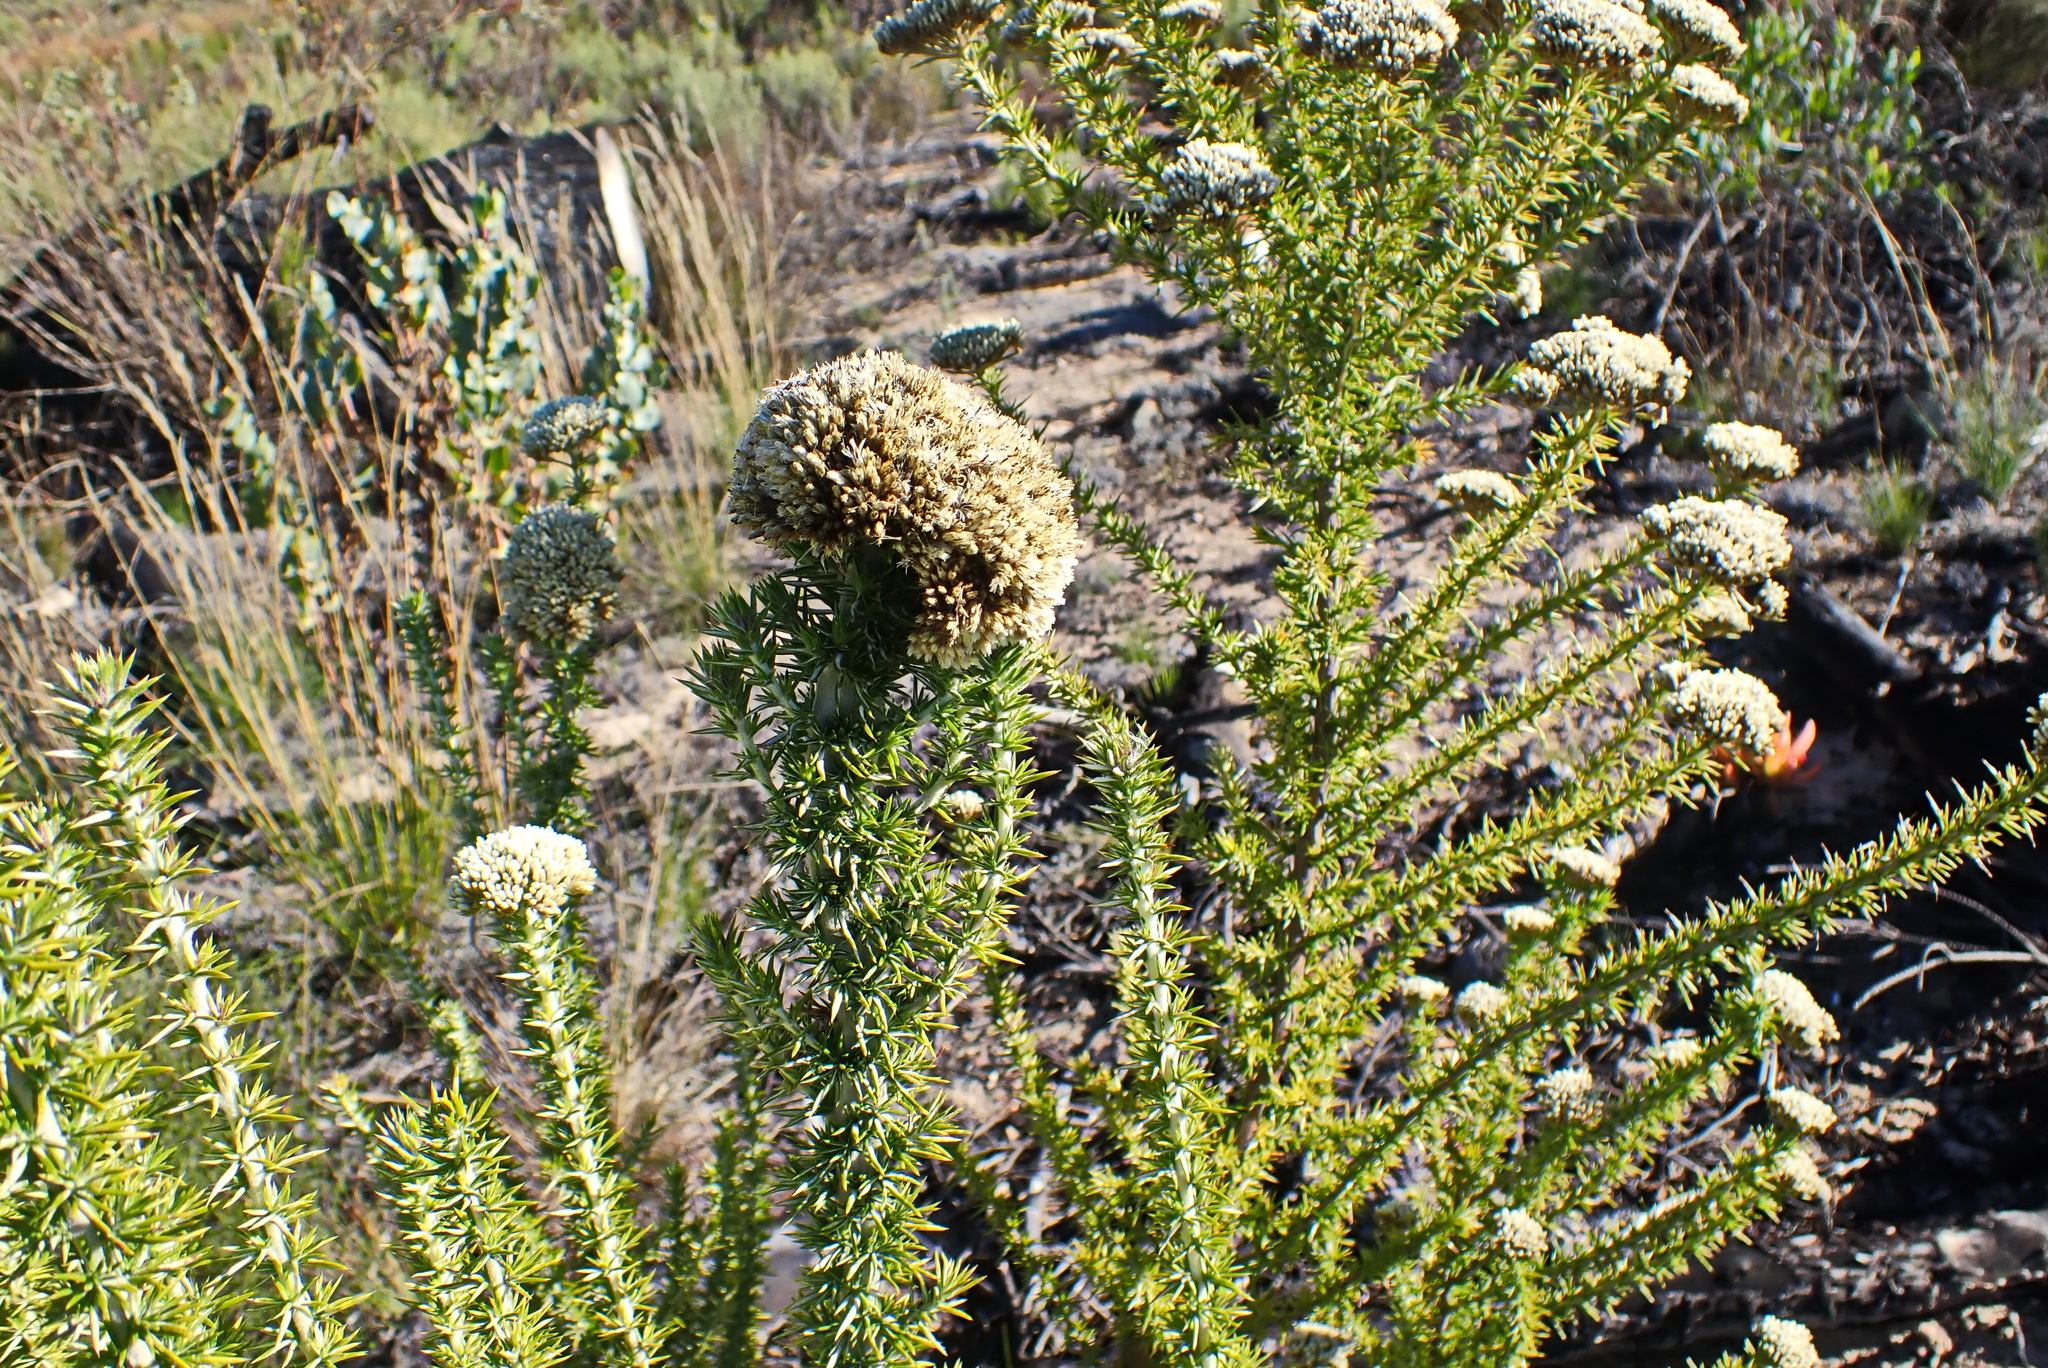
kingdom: Plantae
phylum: Tracheophyta
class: Magnoliopsida
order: Asterales
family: Asteraceae
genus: Metalasia
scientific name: Metalasia trivialis
